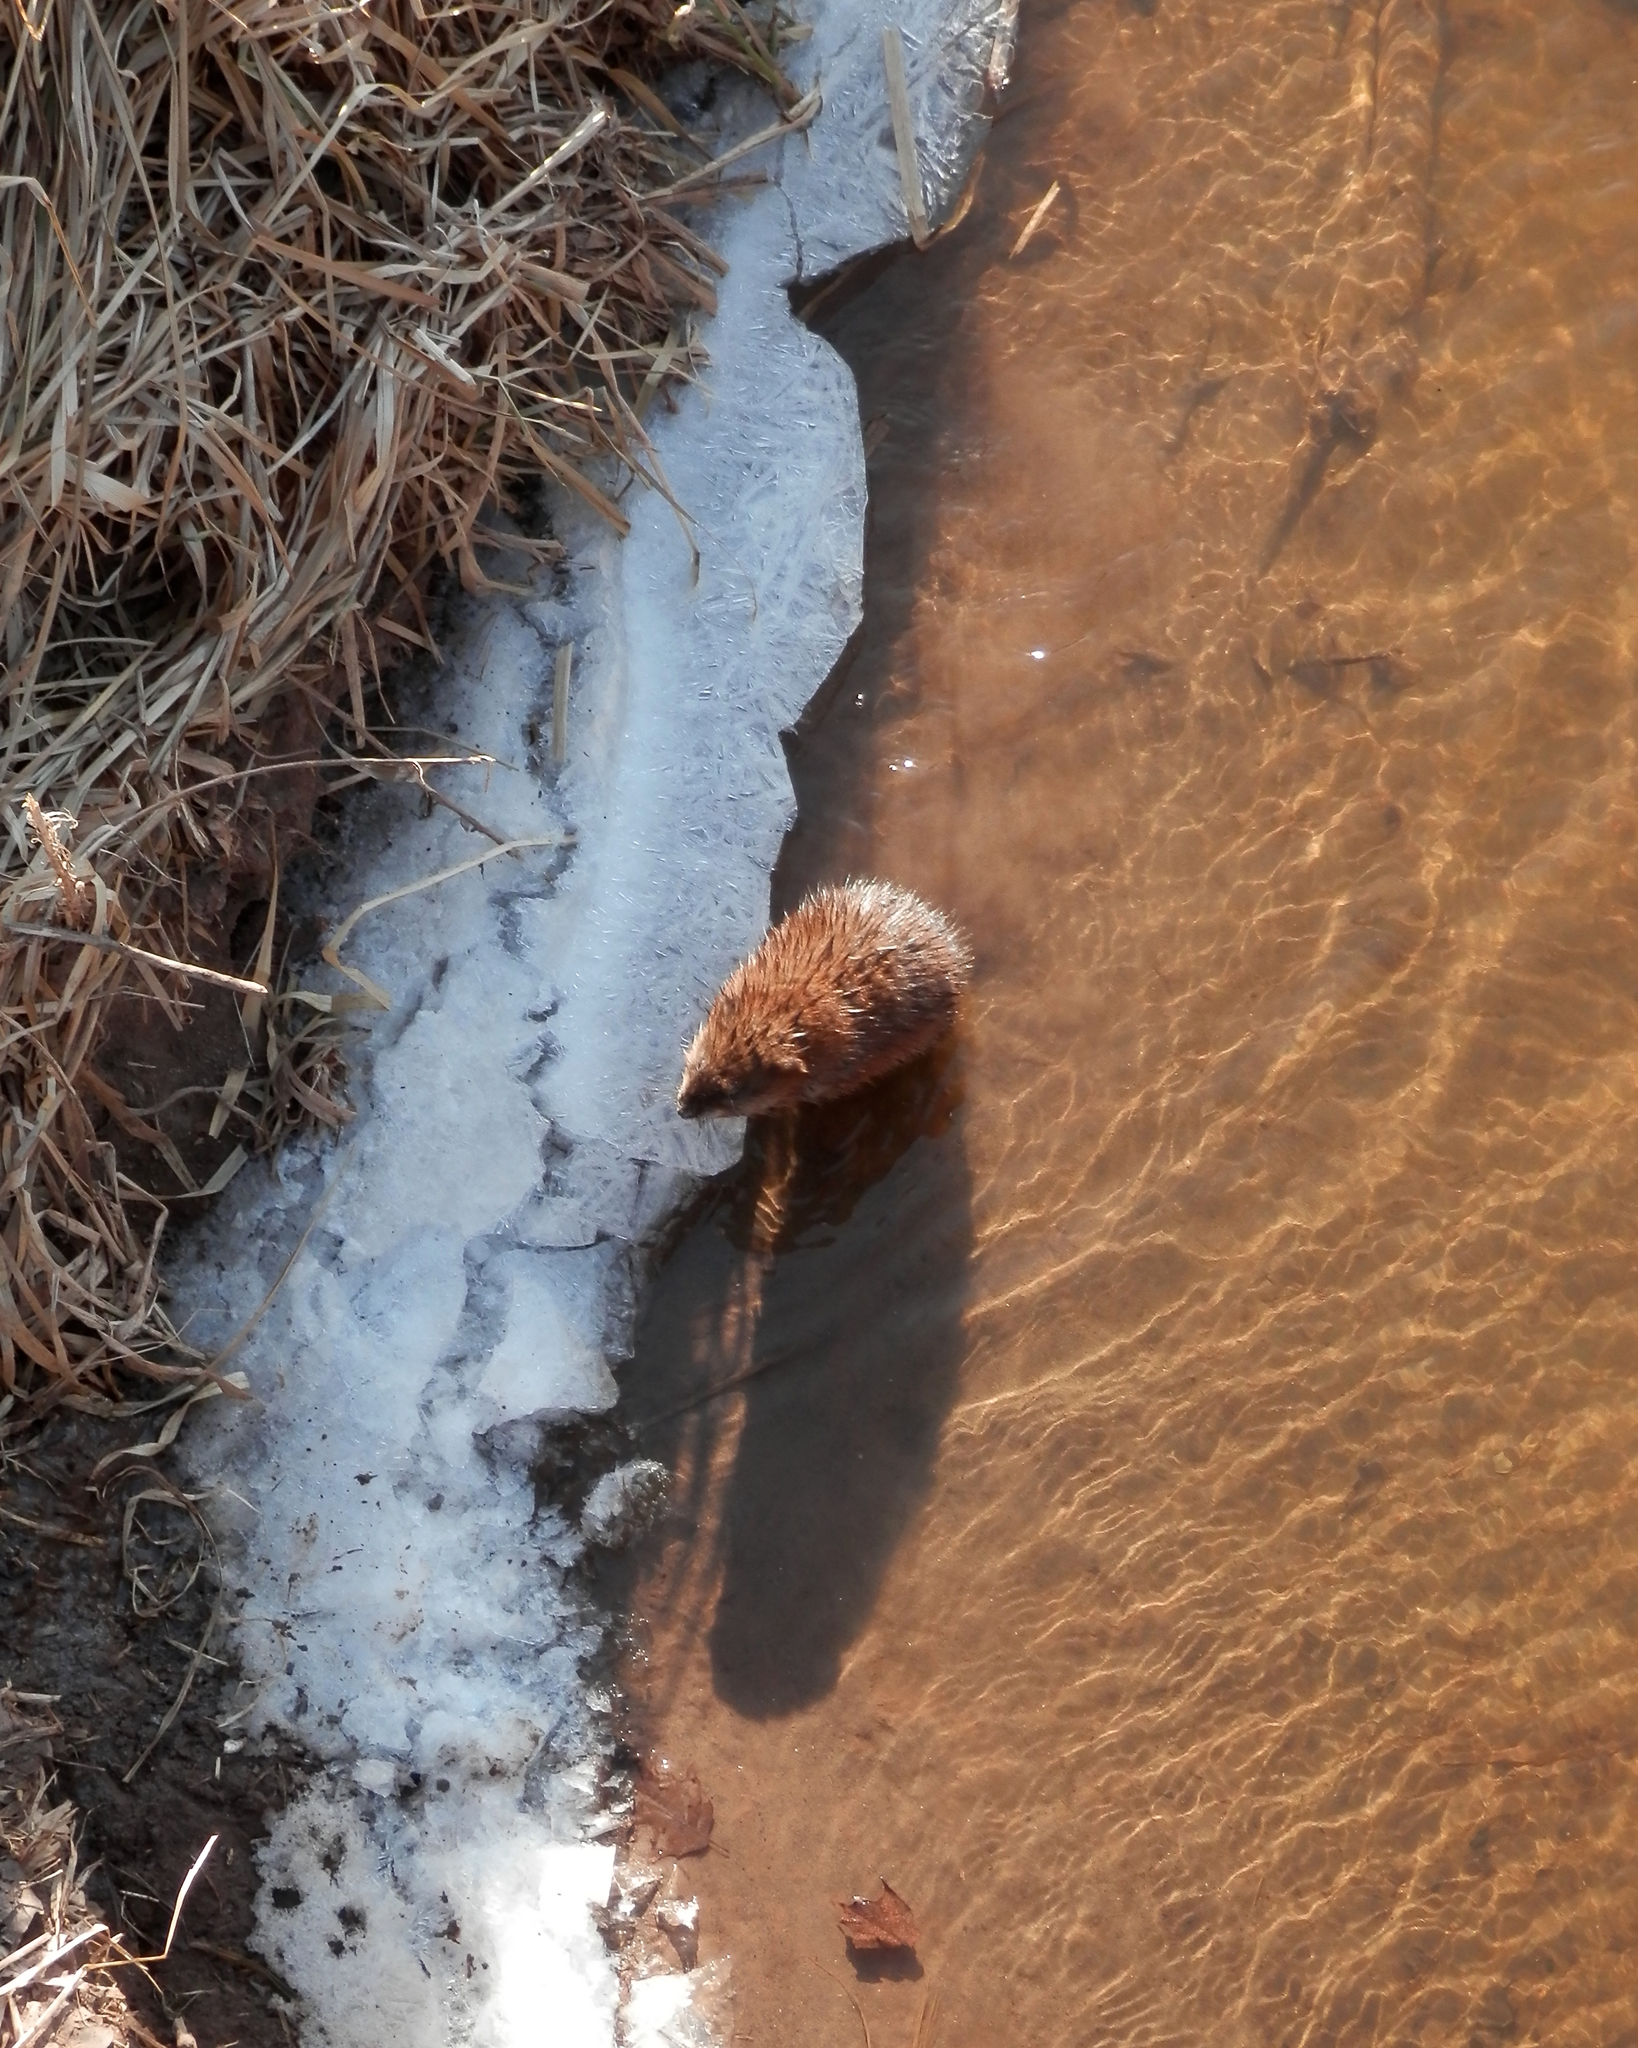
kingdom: Animalia
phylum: Chordata
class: Mammalia
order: Rodentia
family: Cricetidae
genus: Ondatra
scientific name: Ondatra zibethicus
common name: Muskrat
